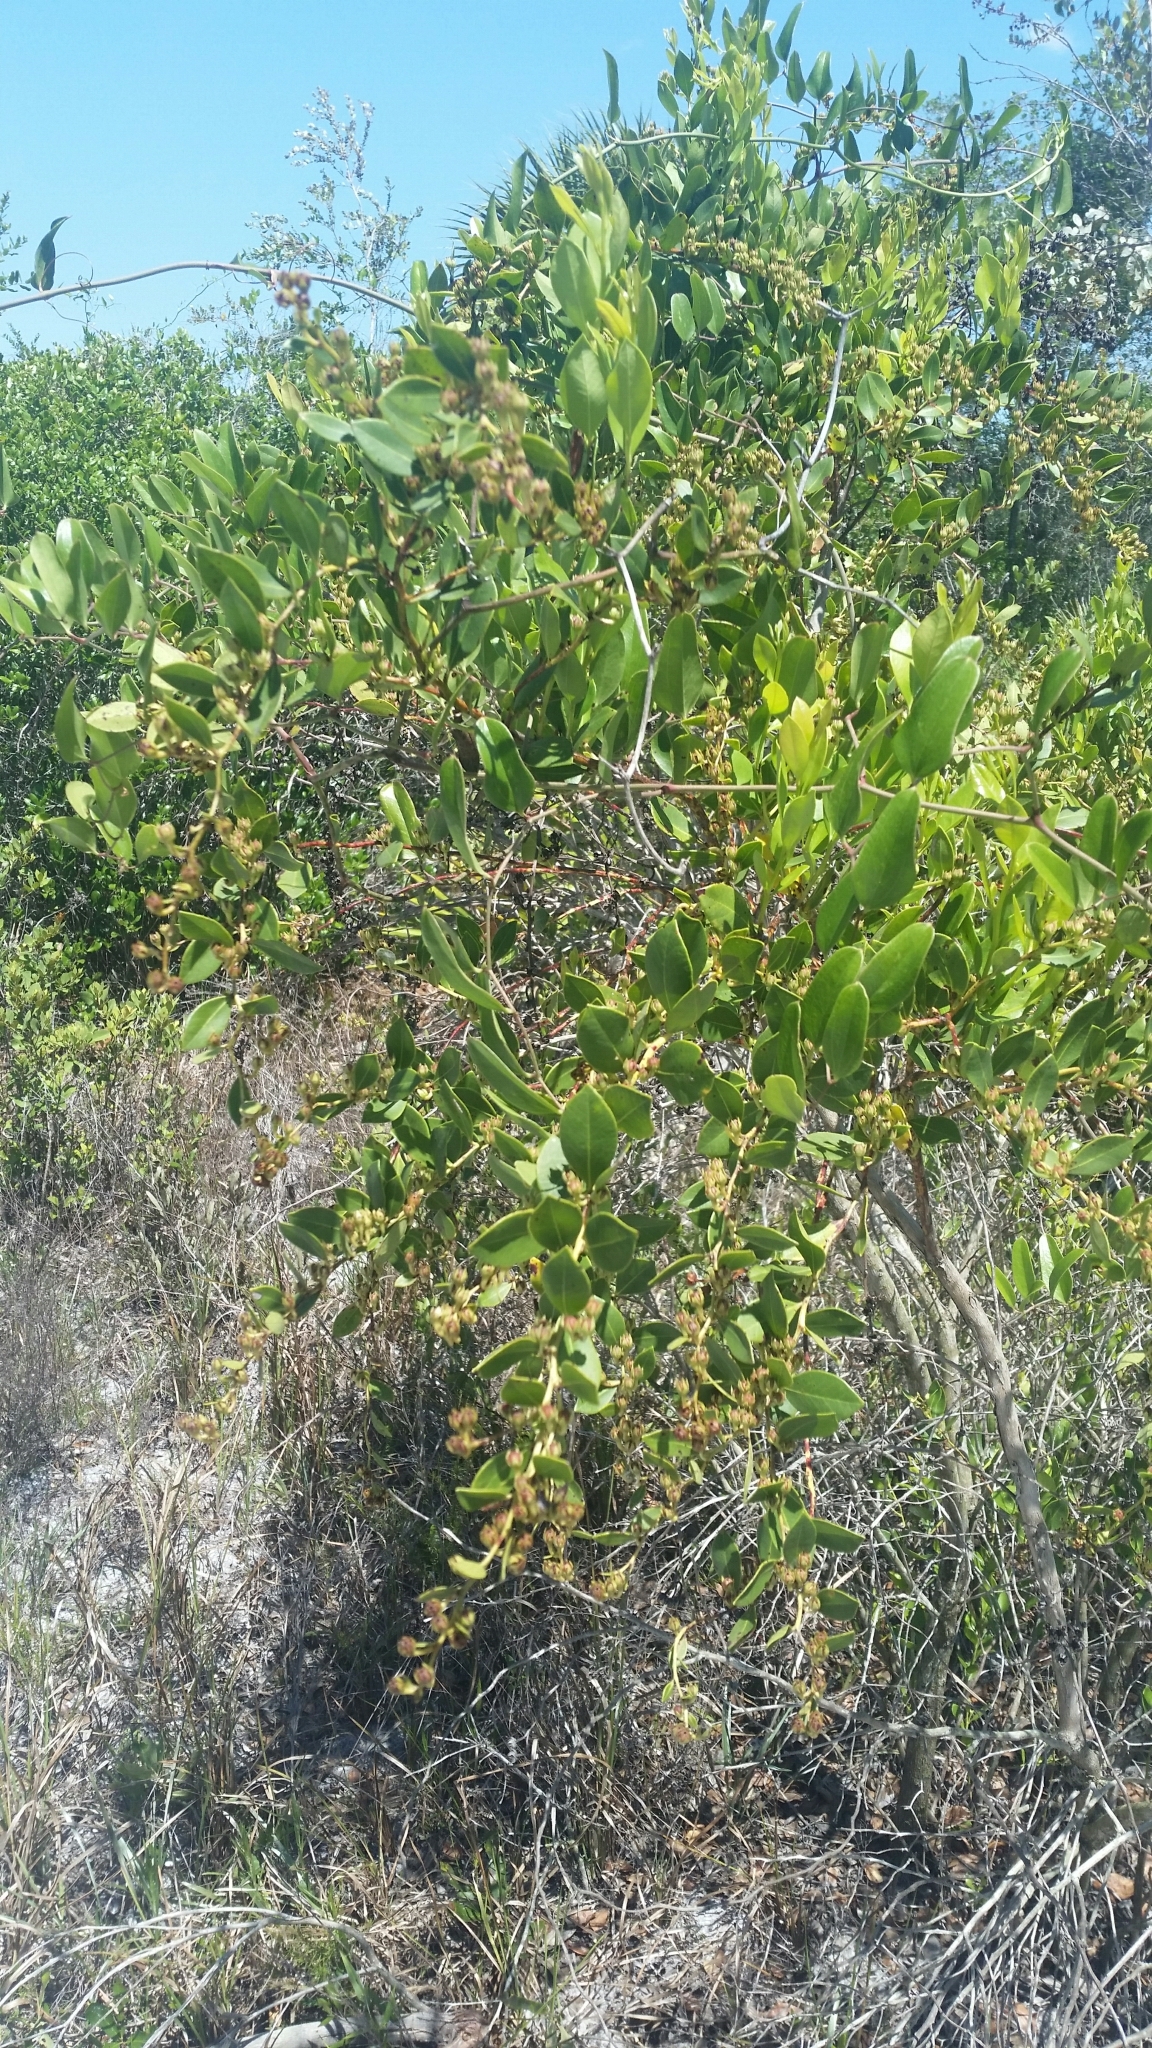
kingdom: Plantae
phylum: Tracheophyta
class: Magnoliopsida
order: Ericales
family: Ericaceae
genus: Lyonia
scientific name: Lyonia lucida
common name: Fetterbush
